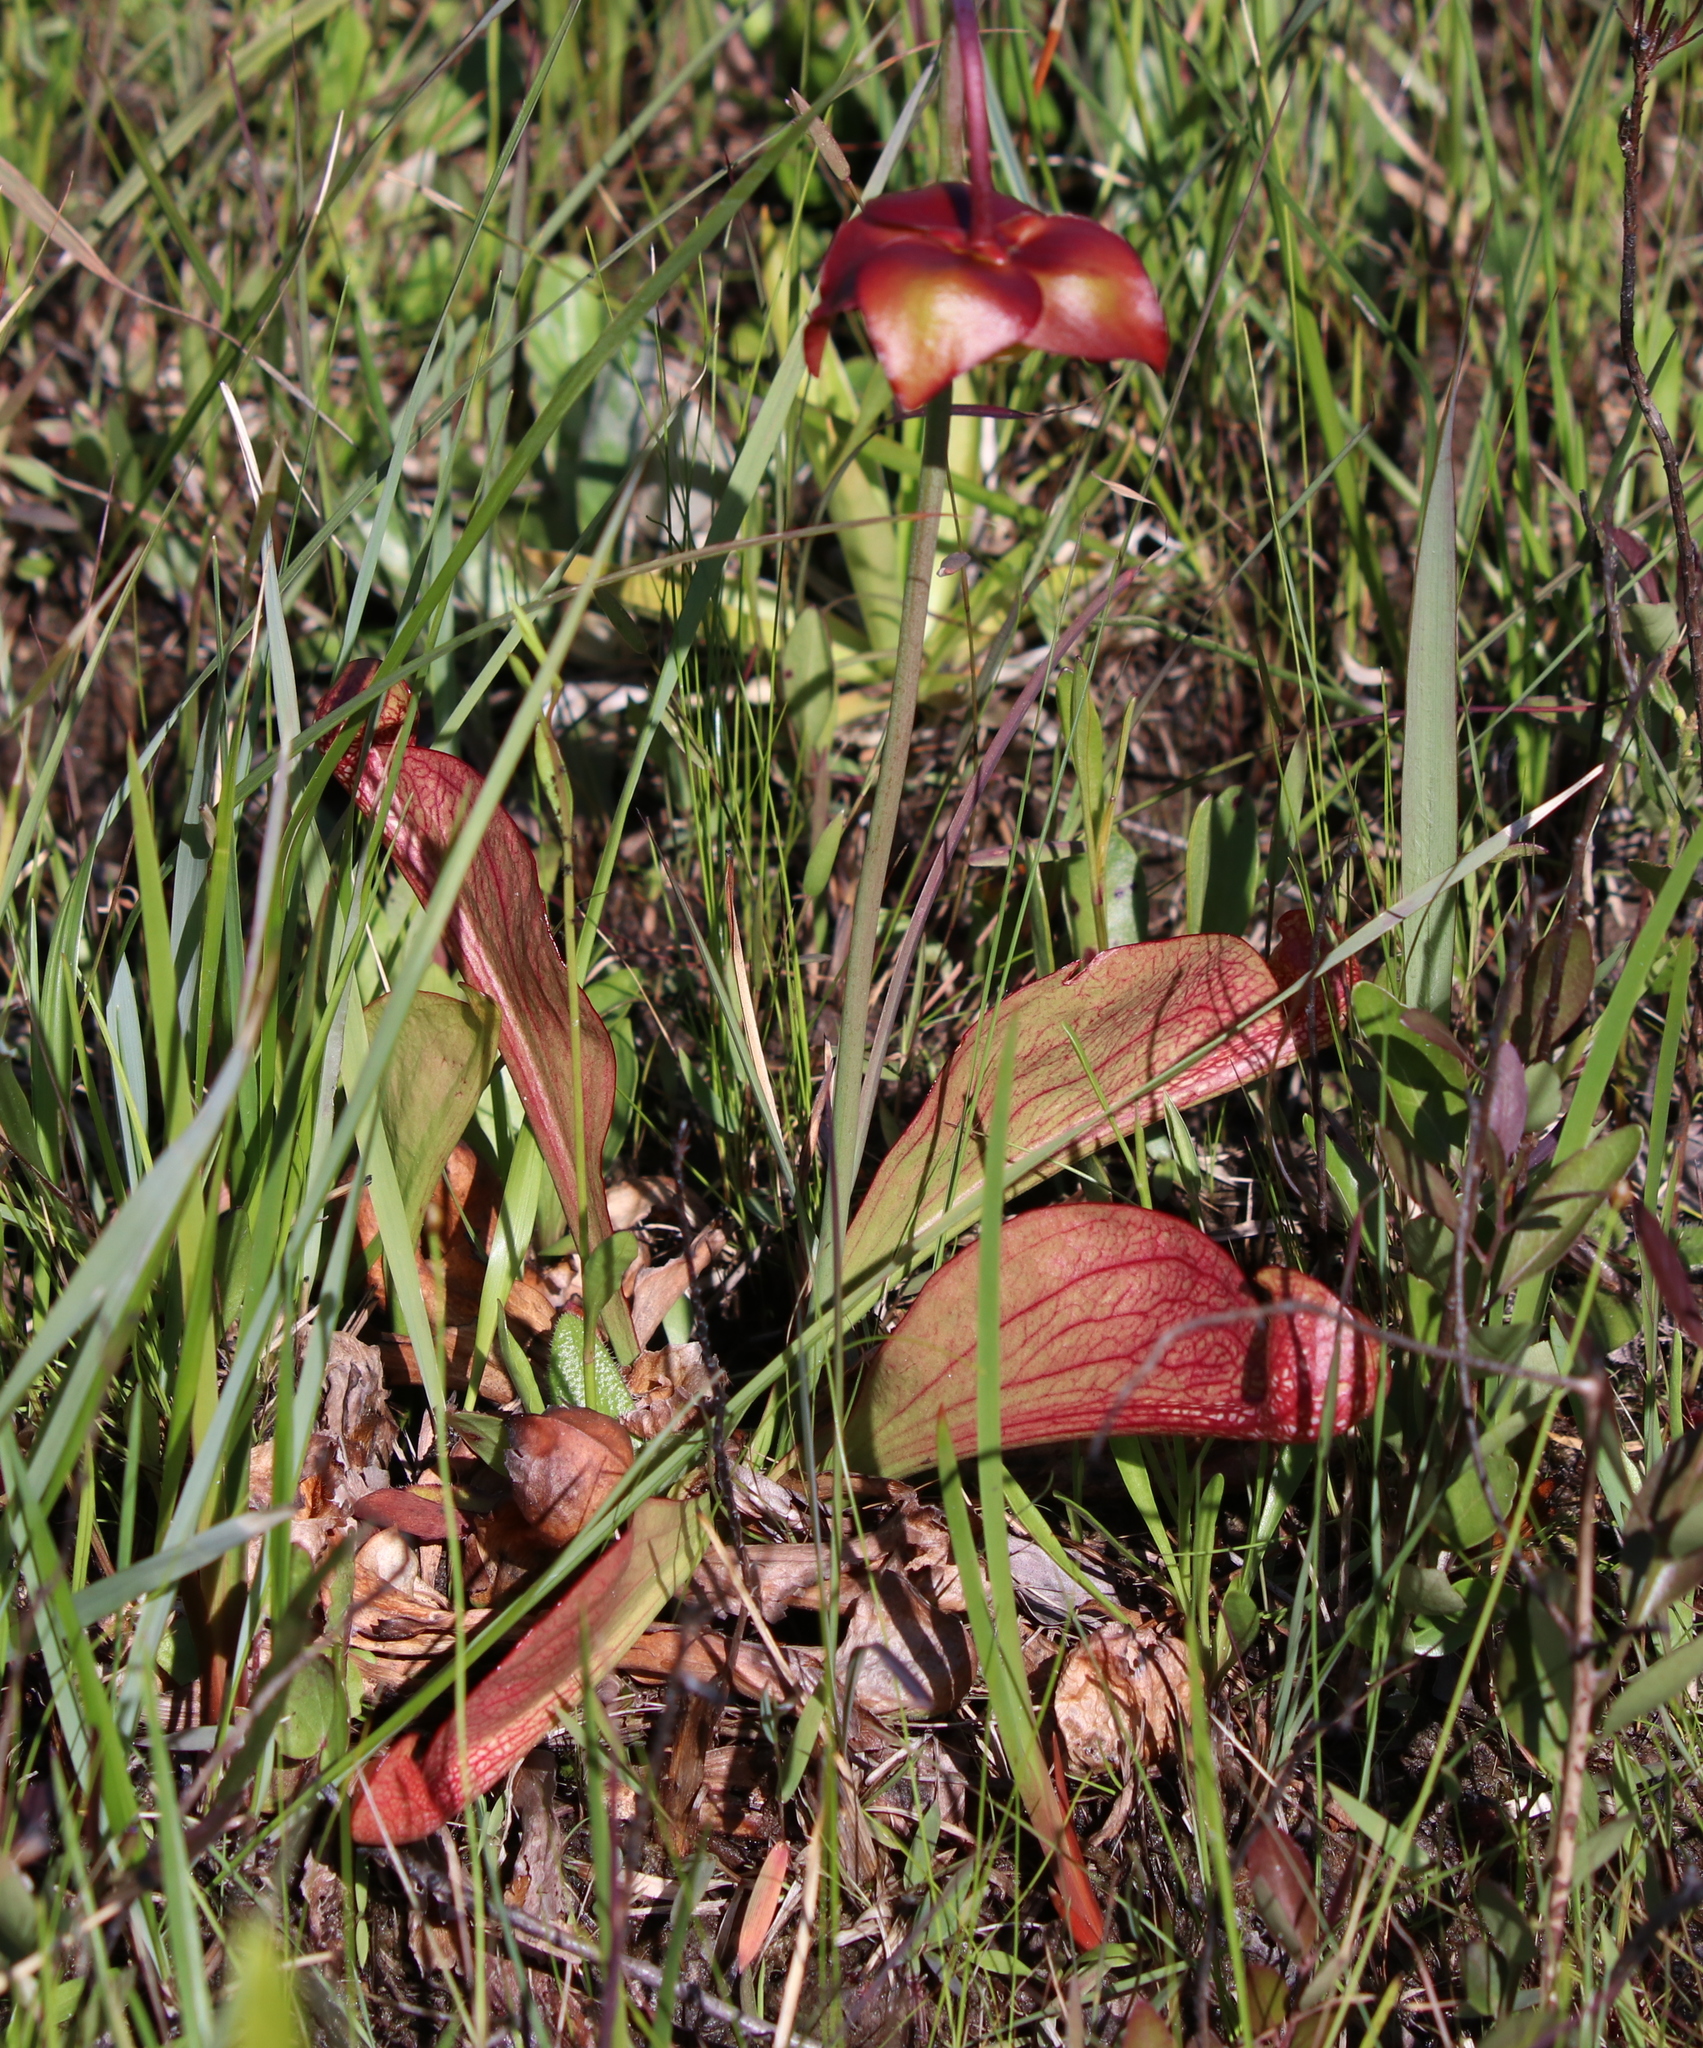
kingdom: Plantae
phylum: Tracheophyta
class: Magnoliopsida
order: Ericales
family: Sarraceniaceae
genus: Sarracenia
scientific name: Sarracenia psittacina
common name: Parrot pitcherplant
